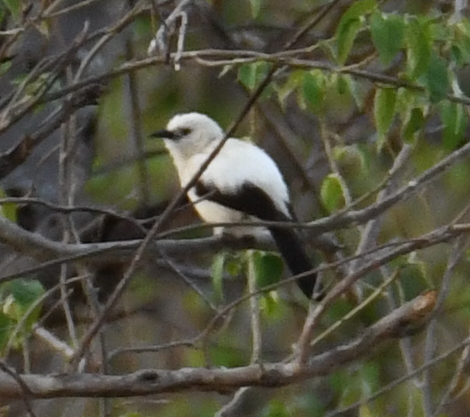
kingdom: Animalia
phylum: Chordata
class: Aves
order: Passeriformes
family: Leiothrichidae
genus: Turdoides
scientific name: Turdoides bicolor
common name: Southern pied babbler
